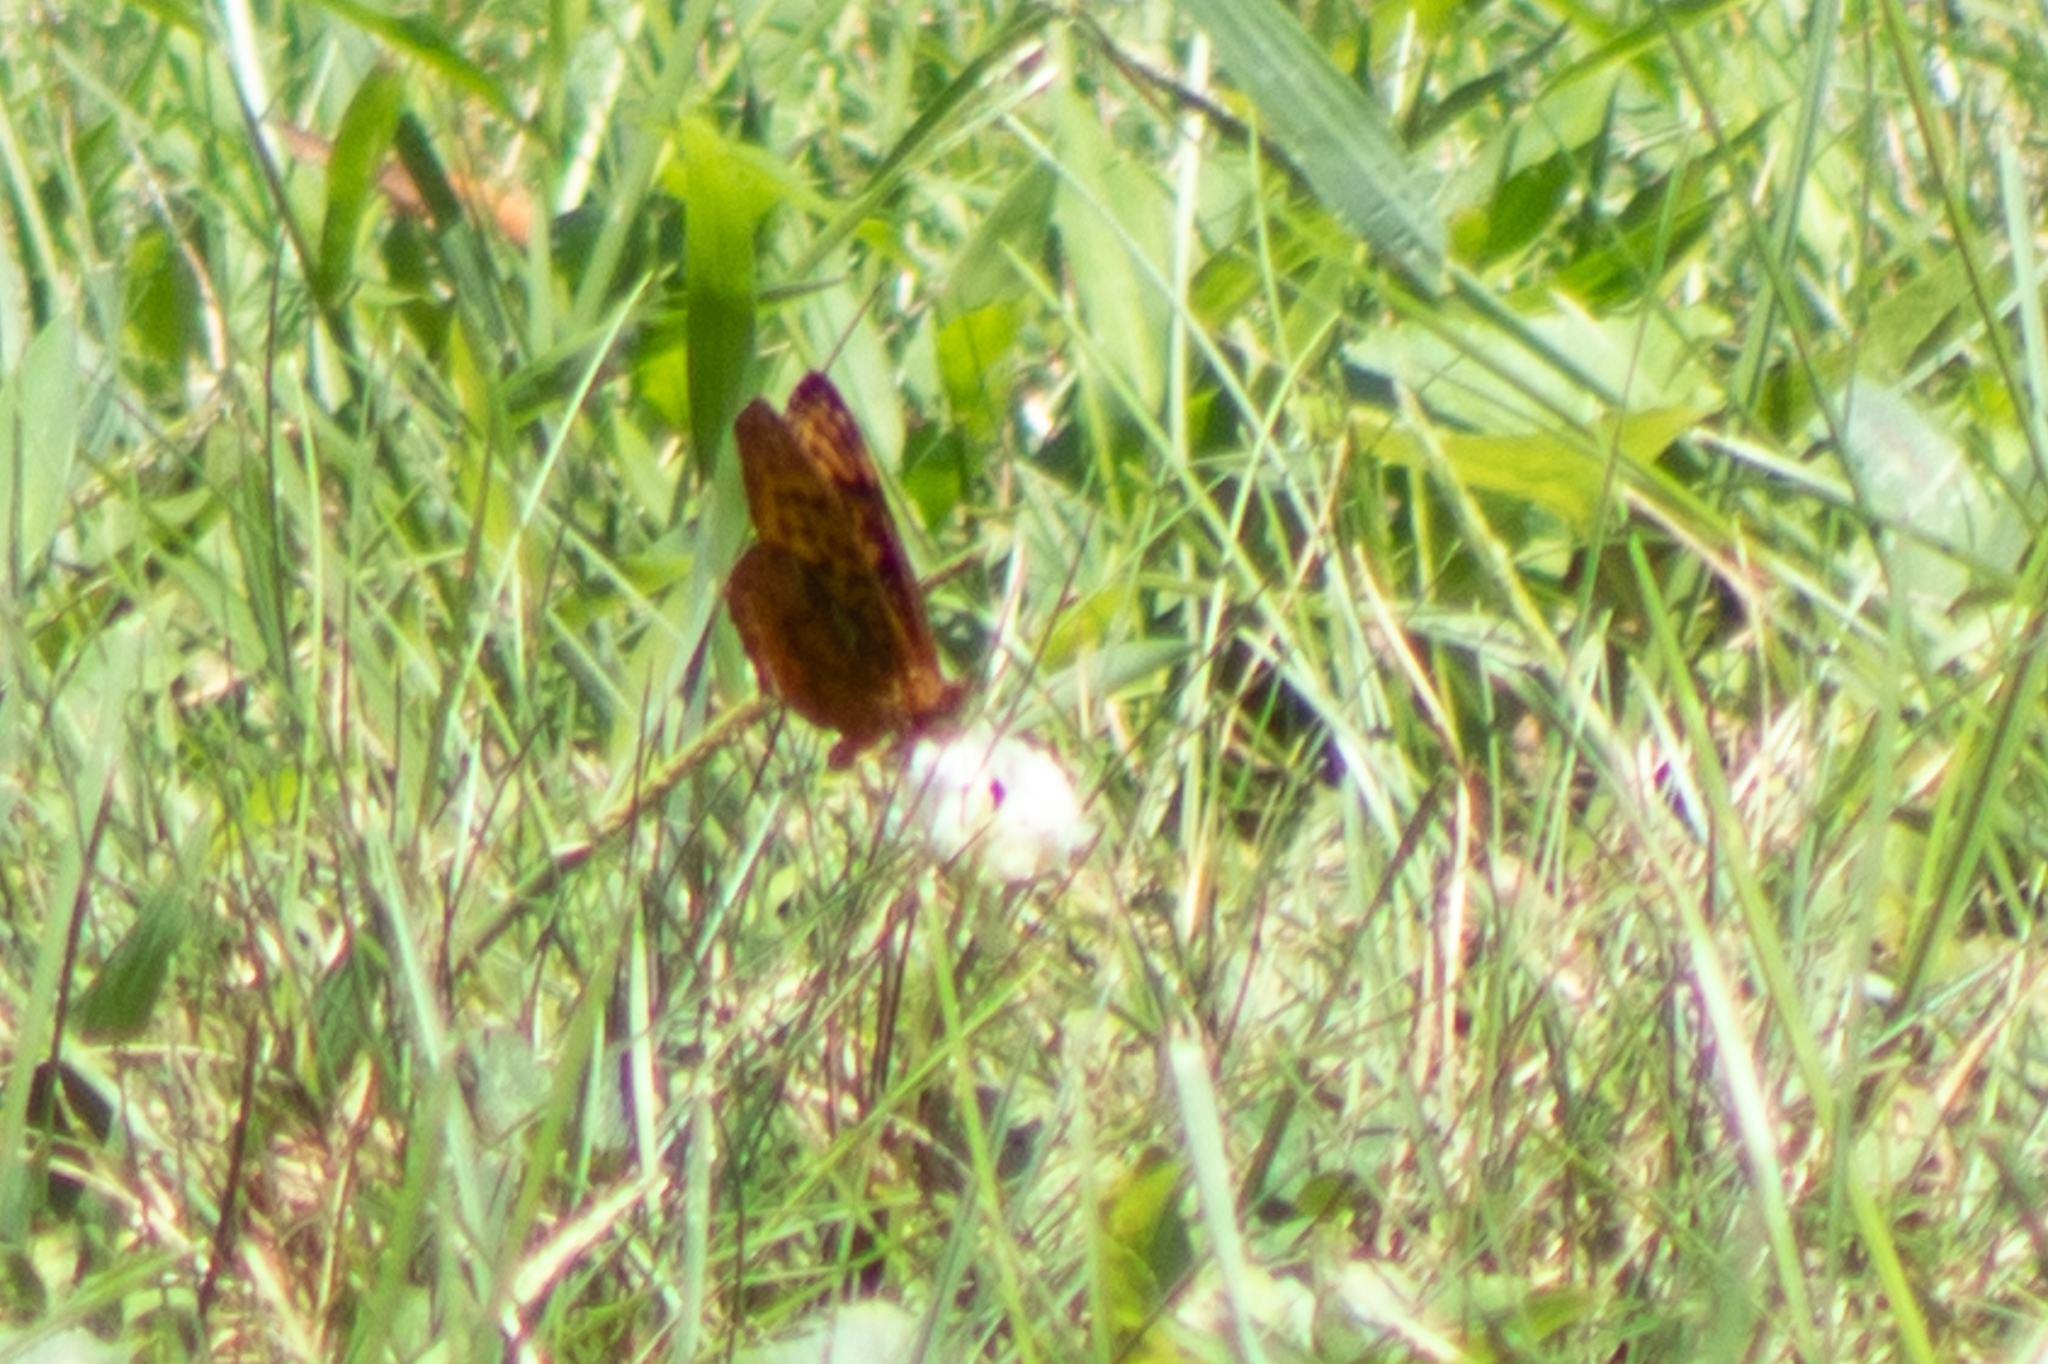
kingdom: Animalia
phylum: Arthropoda
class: Insecta
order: Lepidoptera
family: Nymphalidae
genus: Clossiana
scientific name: Clossiana toddi
